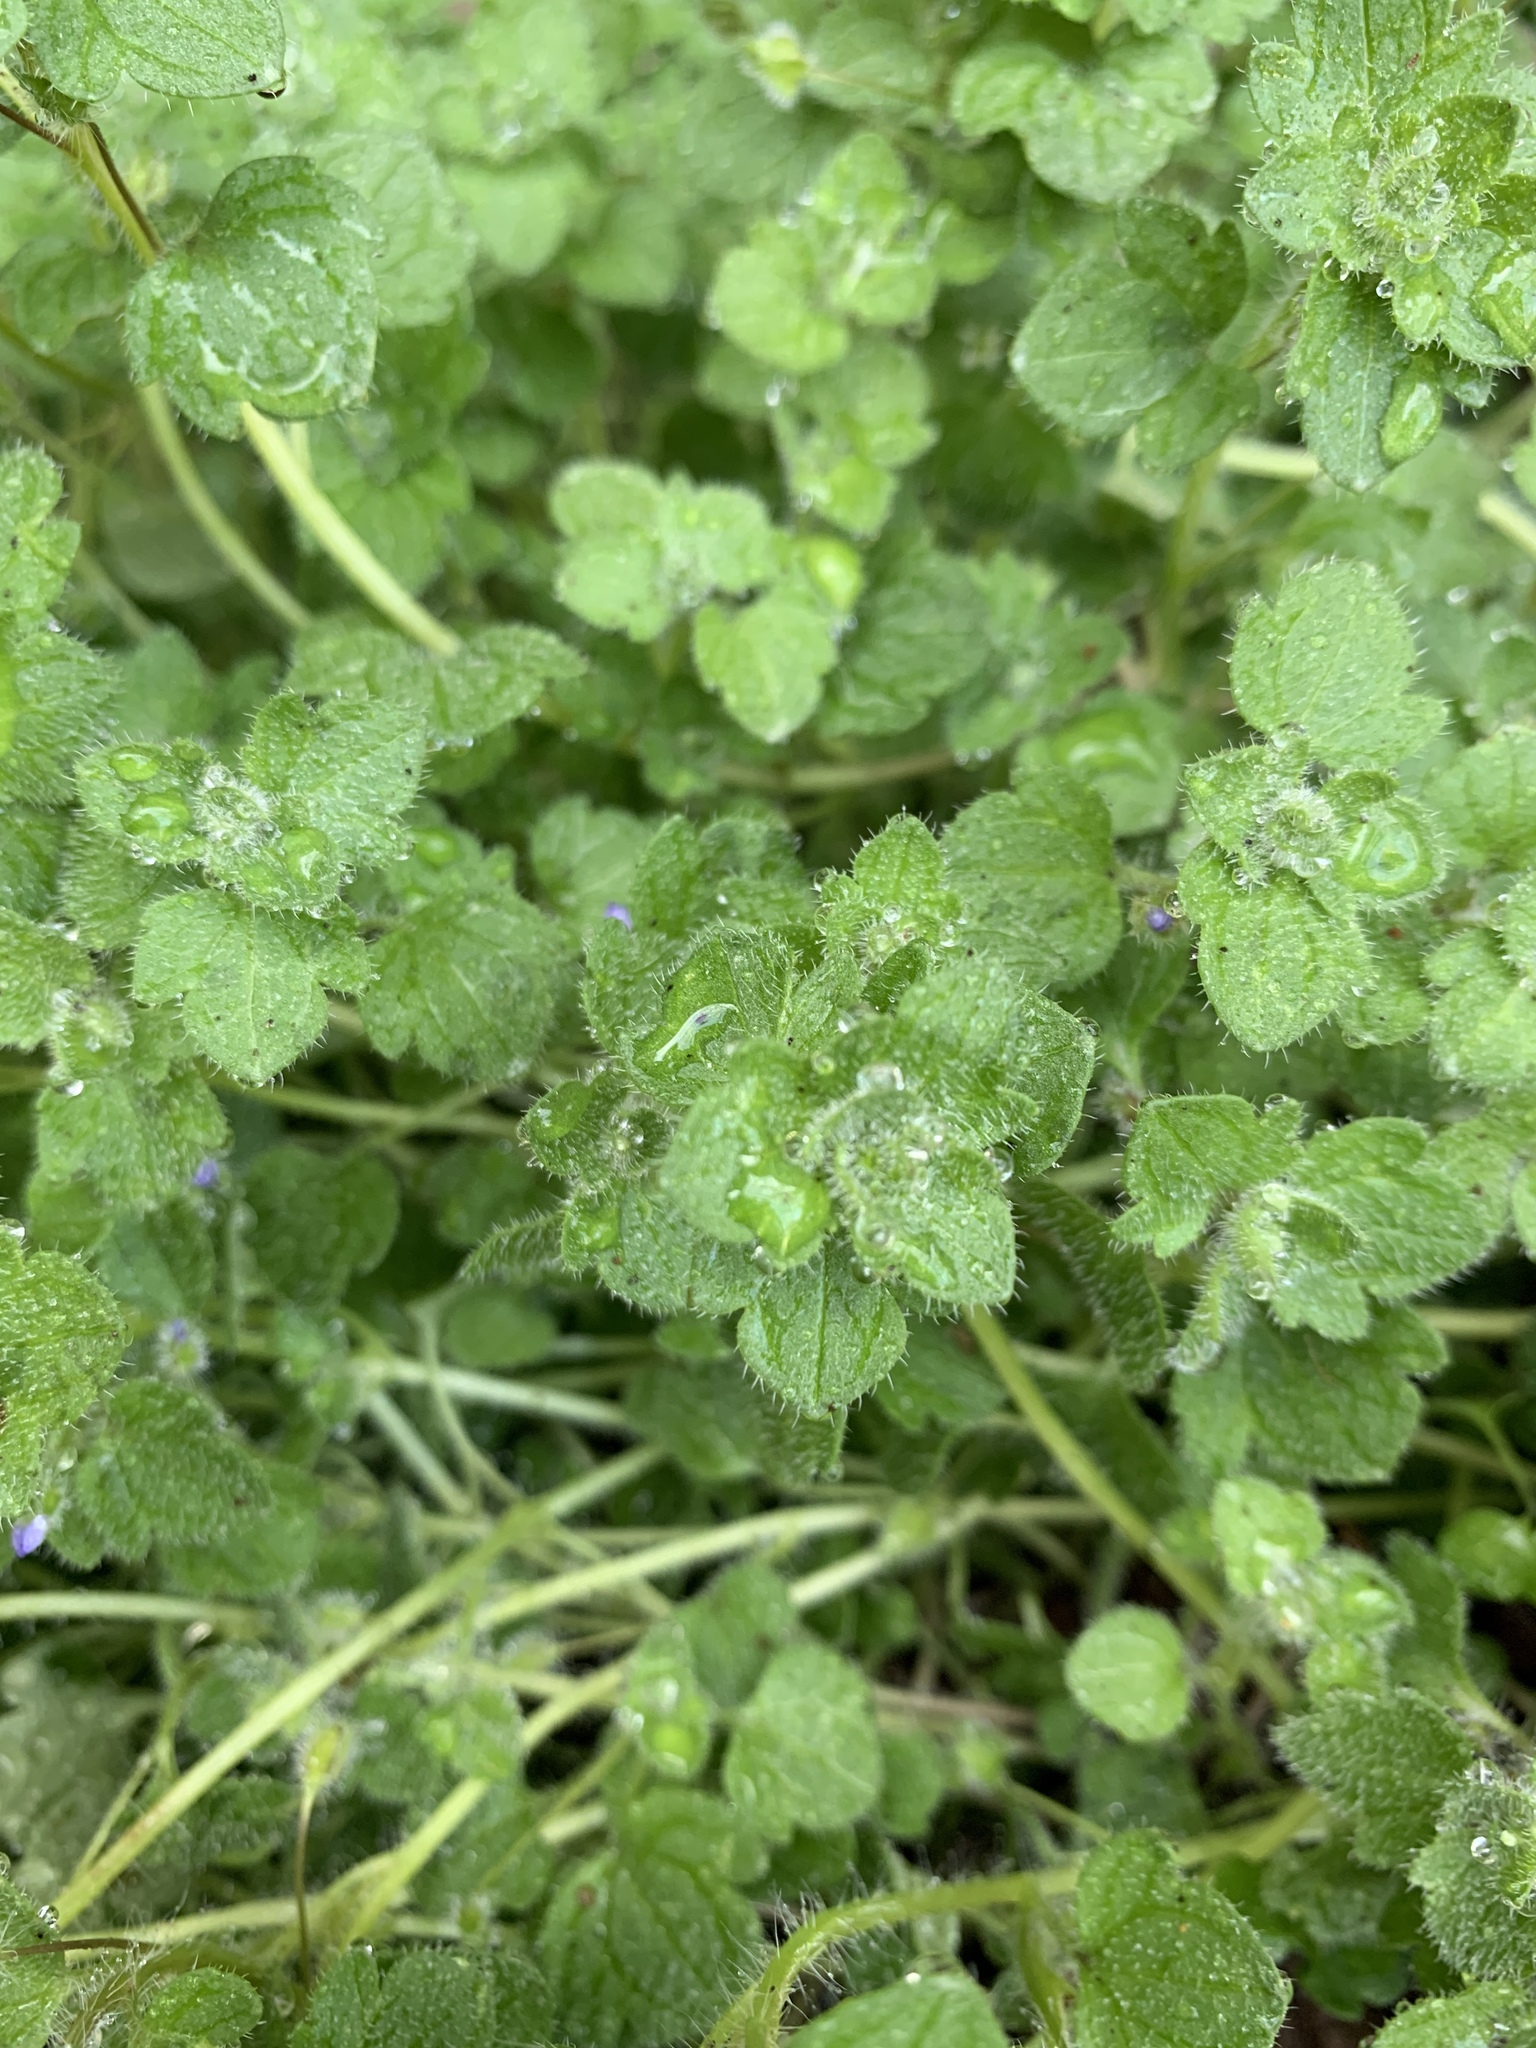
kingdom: Plantae
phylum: Tracheophyta
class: Magnoliopsida
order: Lamiales
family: Plantaginaceae
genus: Veronica
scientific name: Veronica hederifolia
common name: Ivy-leaved speedwell
